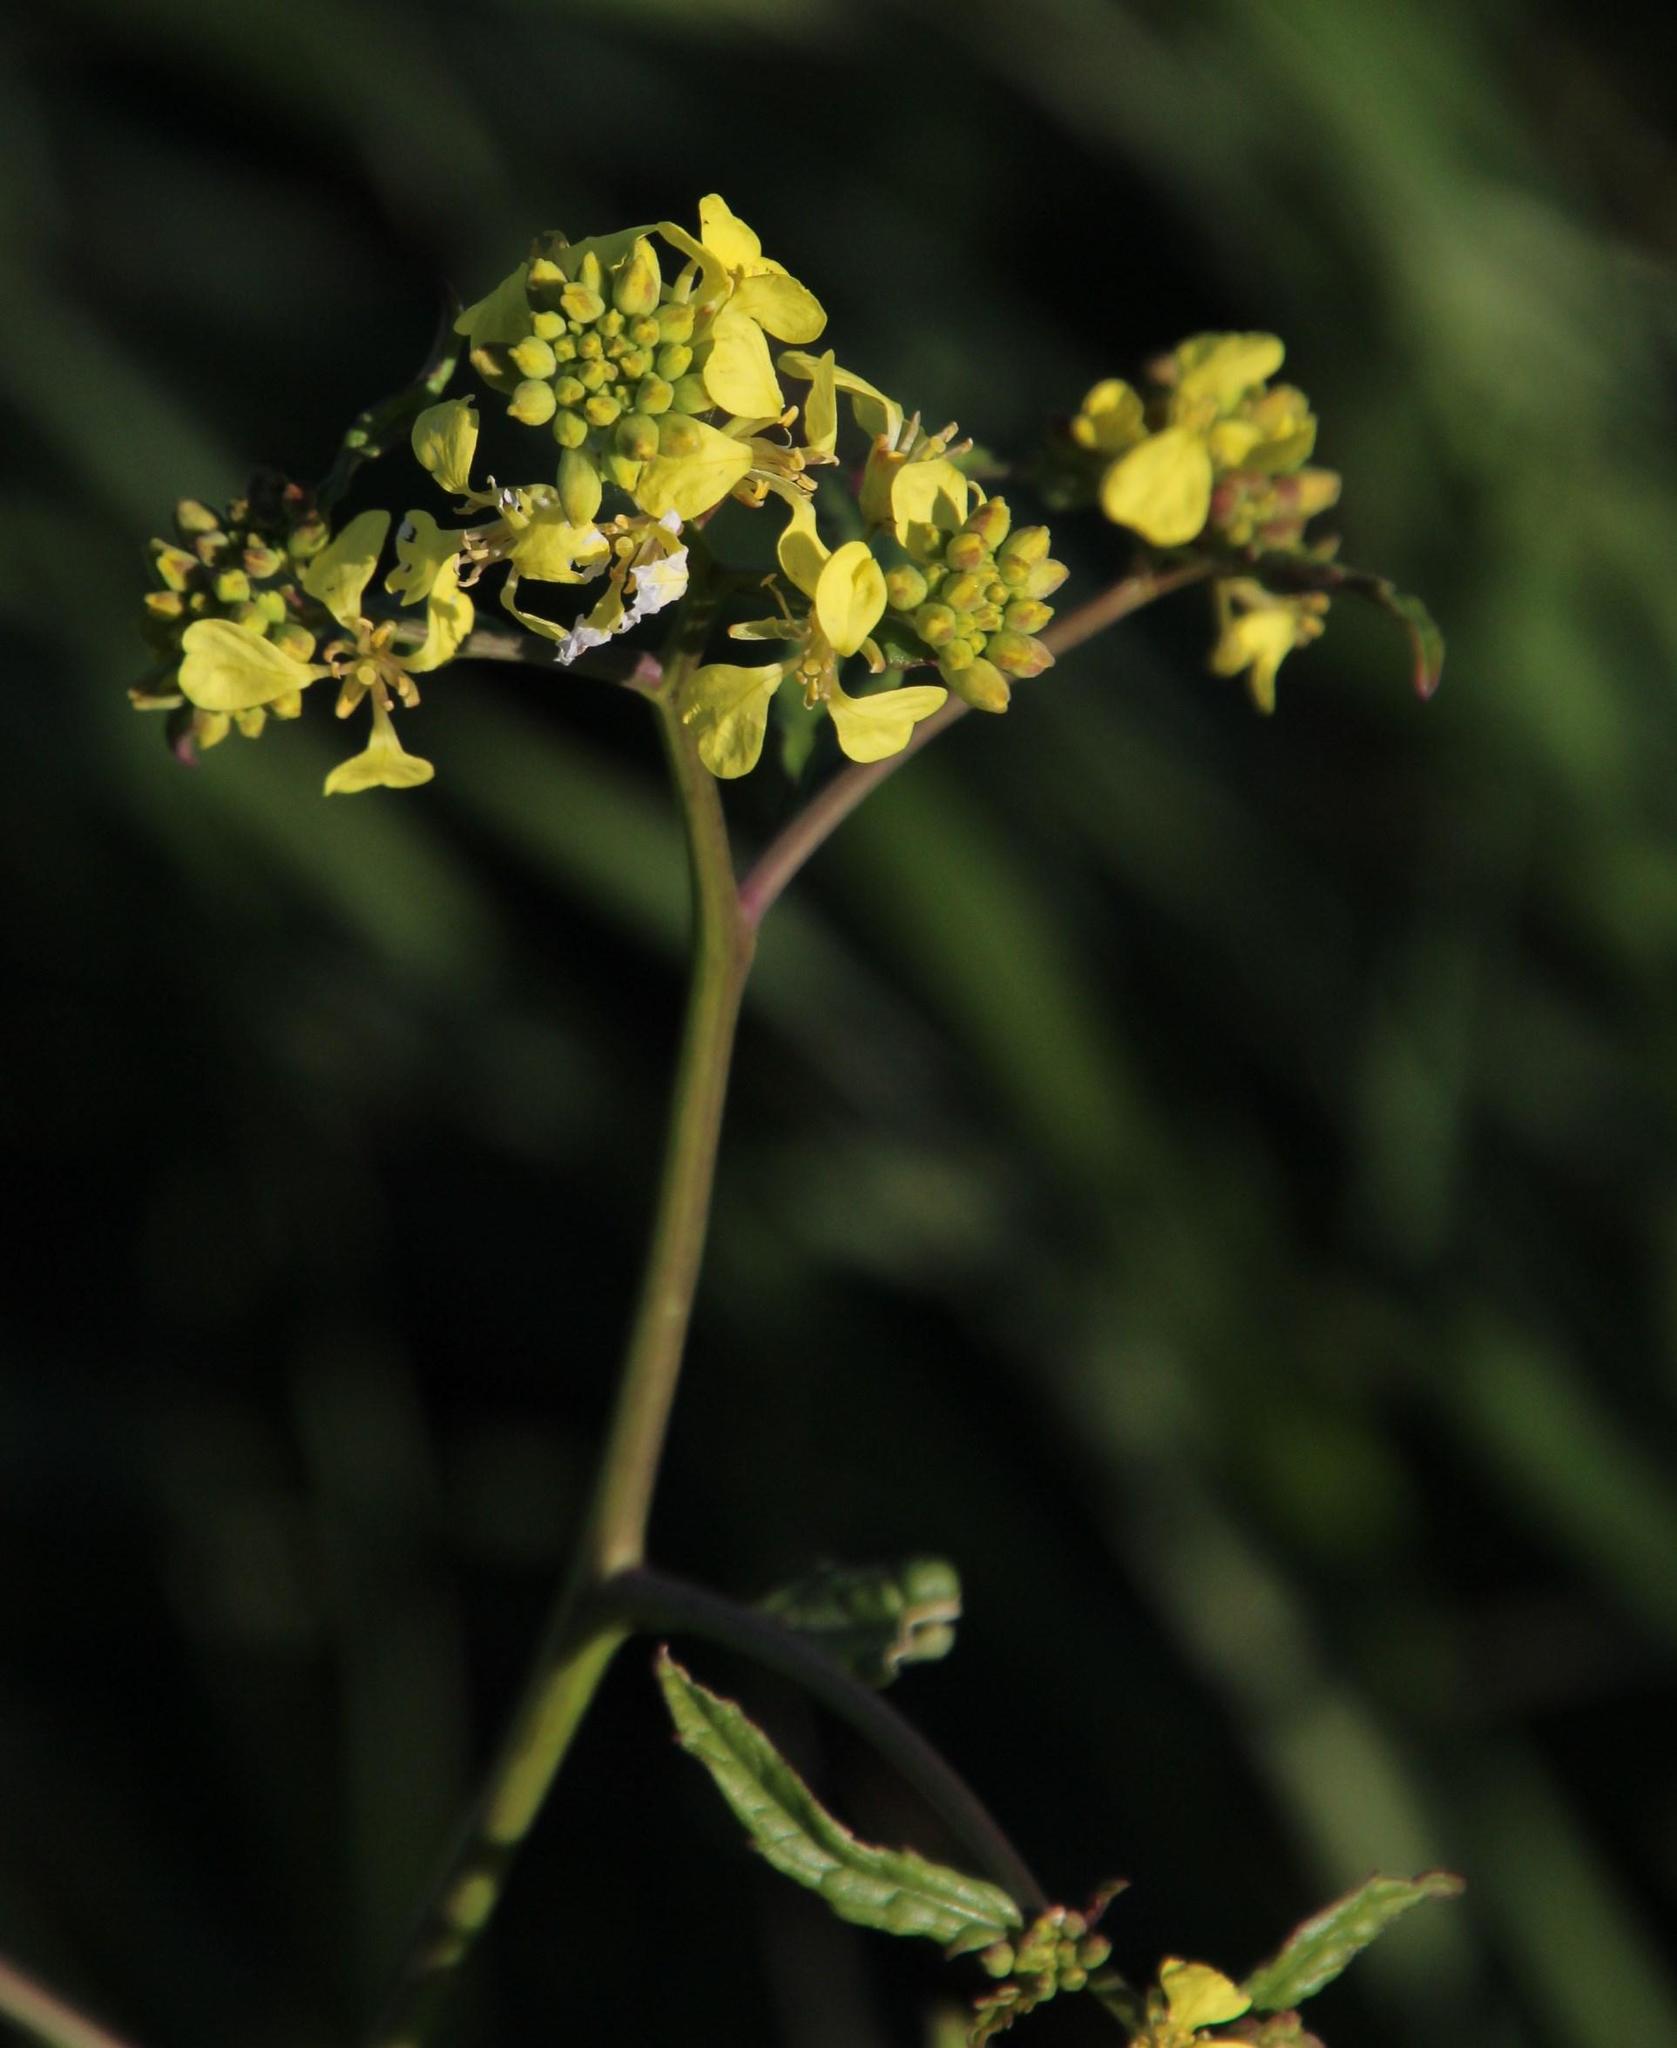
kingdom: Plantae
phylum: Tracheophyta
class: Magnoliopsida
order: Brassicales
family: Brassicaceae
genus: Rapistrum
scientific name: Rapistrum rugosum
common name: Annual bastardcabbage
